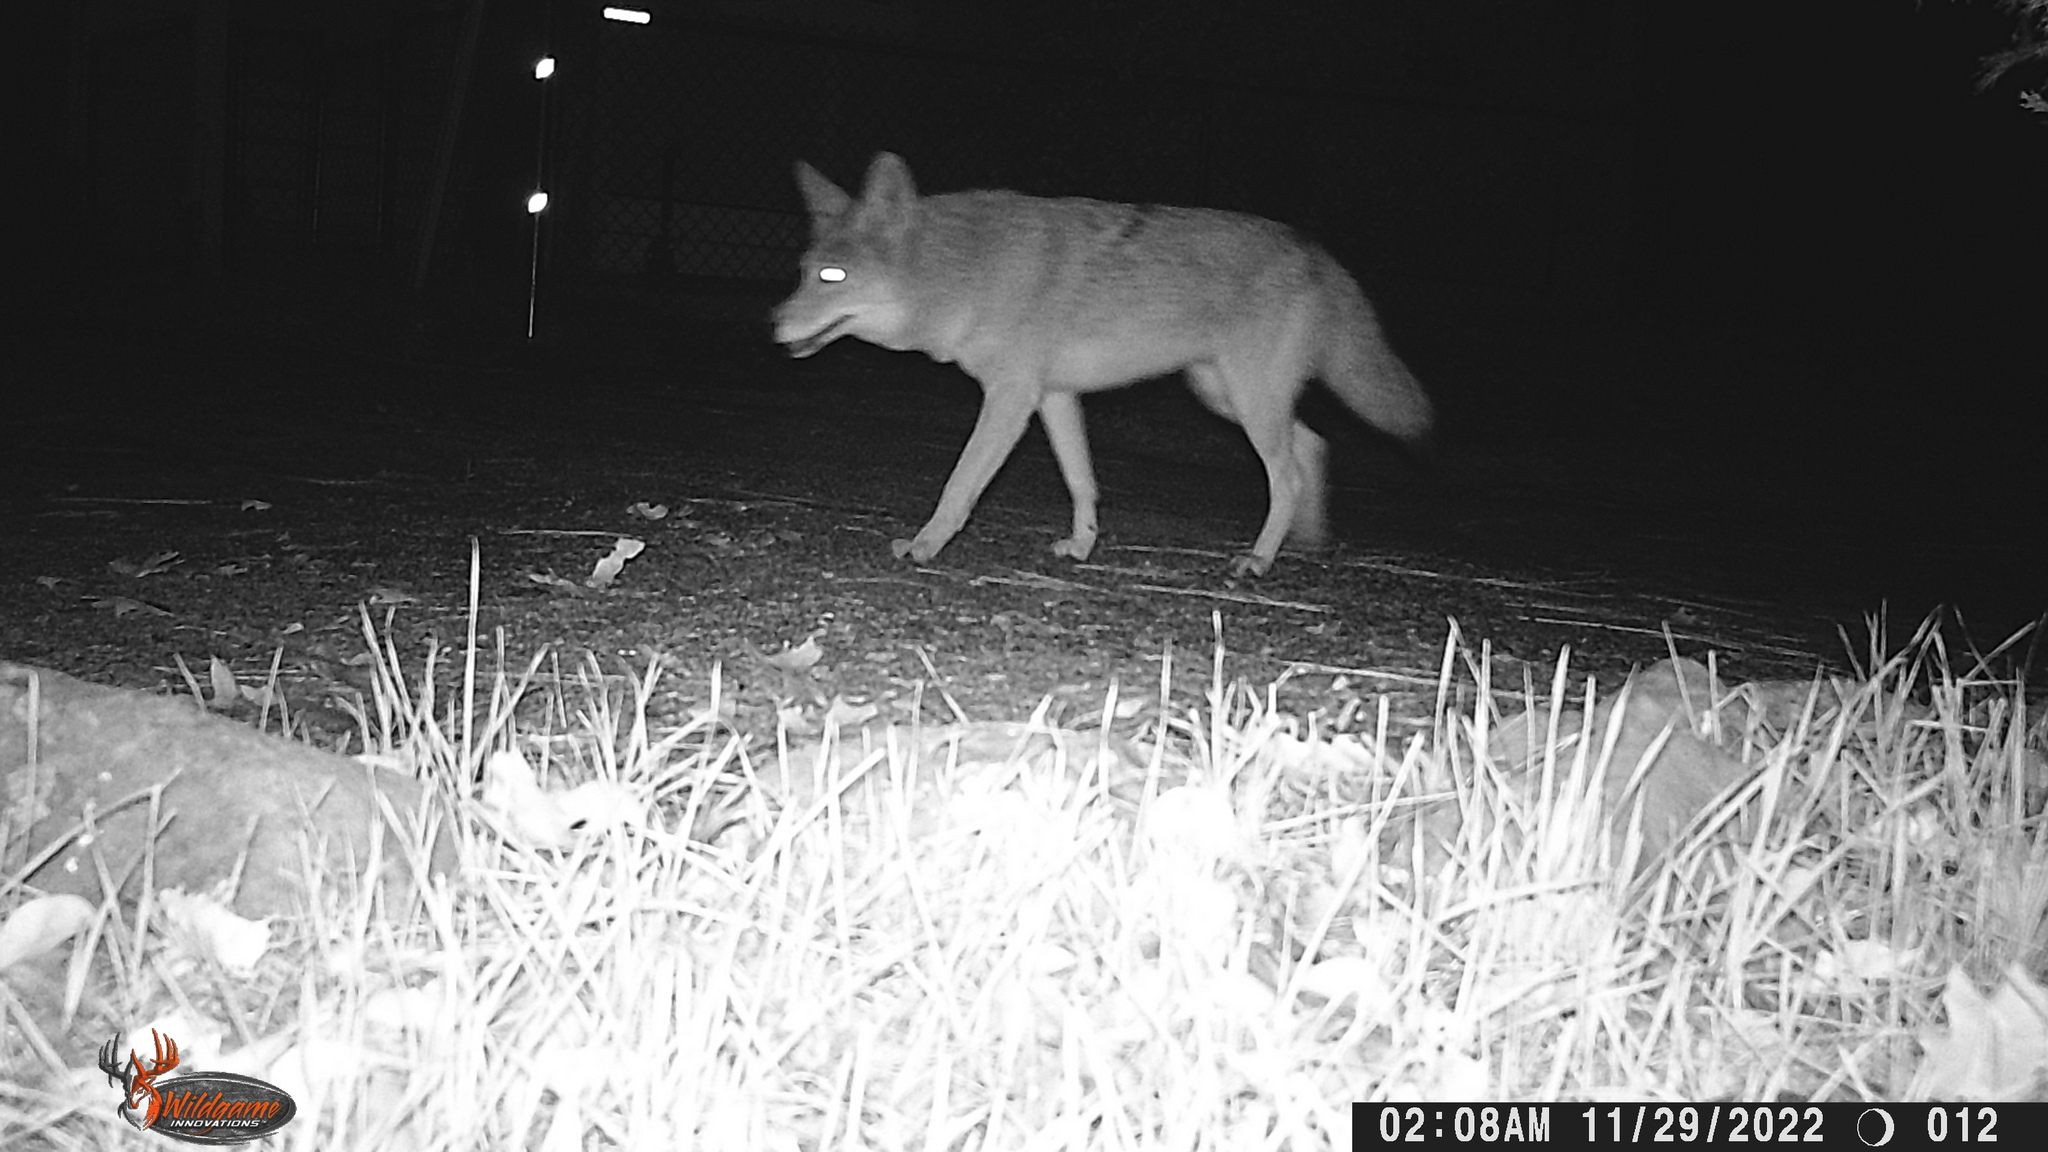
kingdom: Animalia
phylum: Chordata
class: Mammalia
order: Carnivora
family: Canidae
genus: Canis
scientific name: Canis latrans
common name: Coyote
